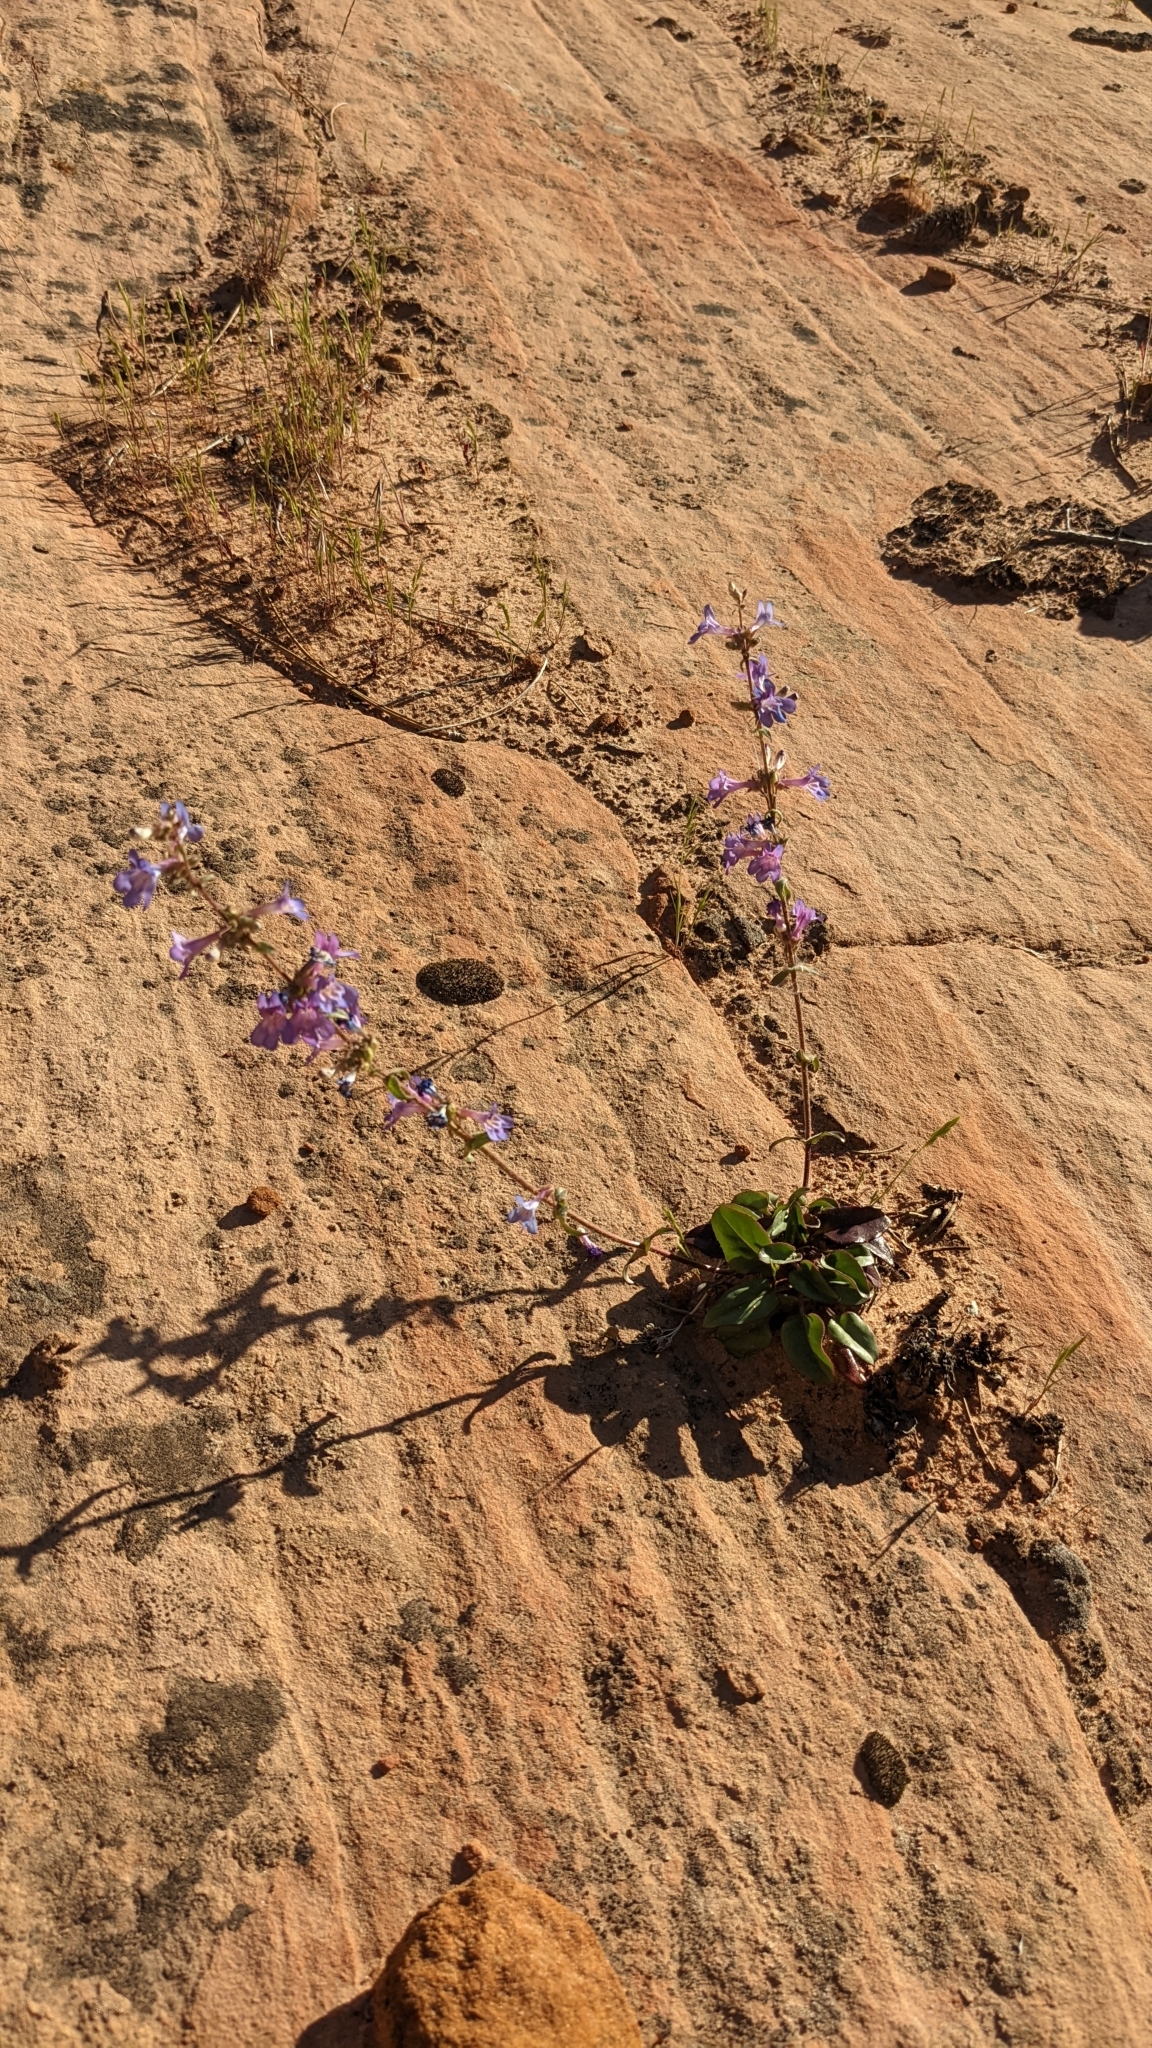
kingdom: Plantae
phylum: Tracheophyta
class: Magnoliopsida
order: Lamiales
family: Plantaginaceae
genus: Penstemon
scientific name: Penstemon humilis
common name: Low penstemon
